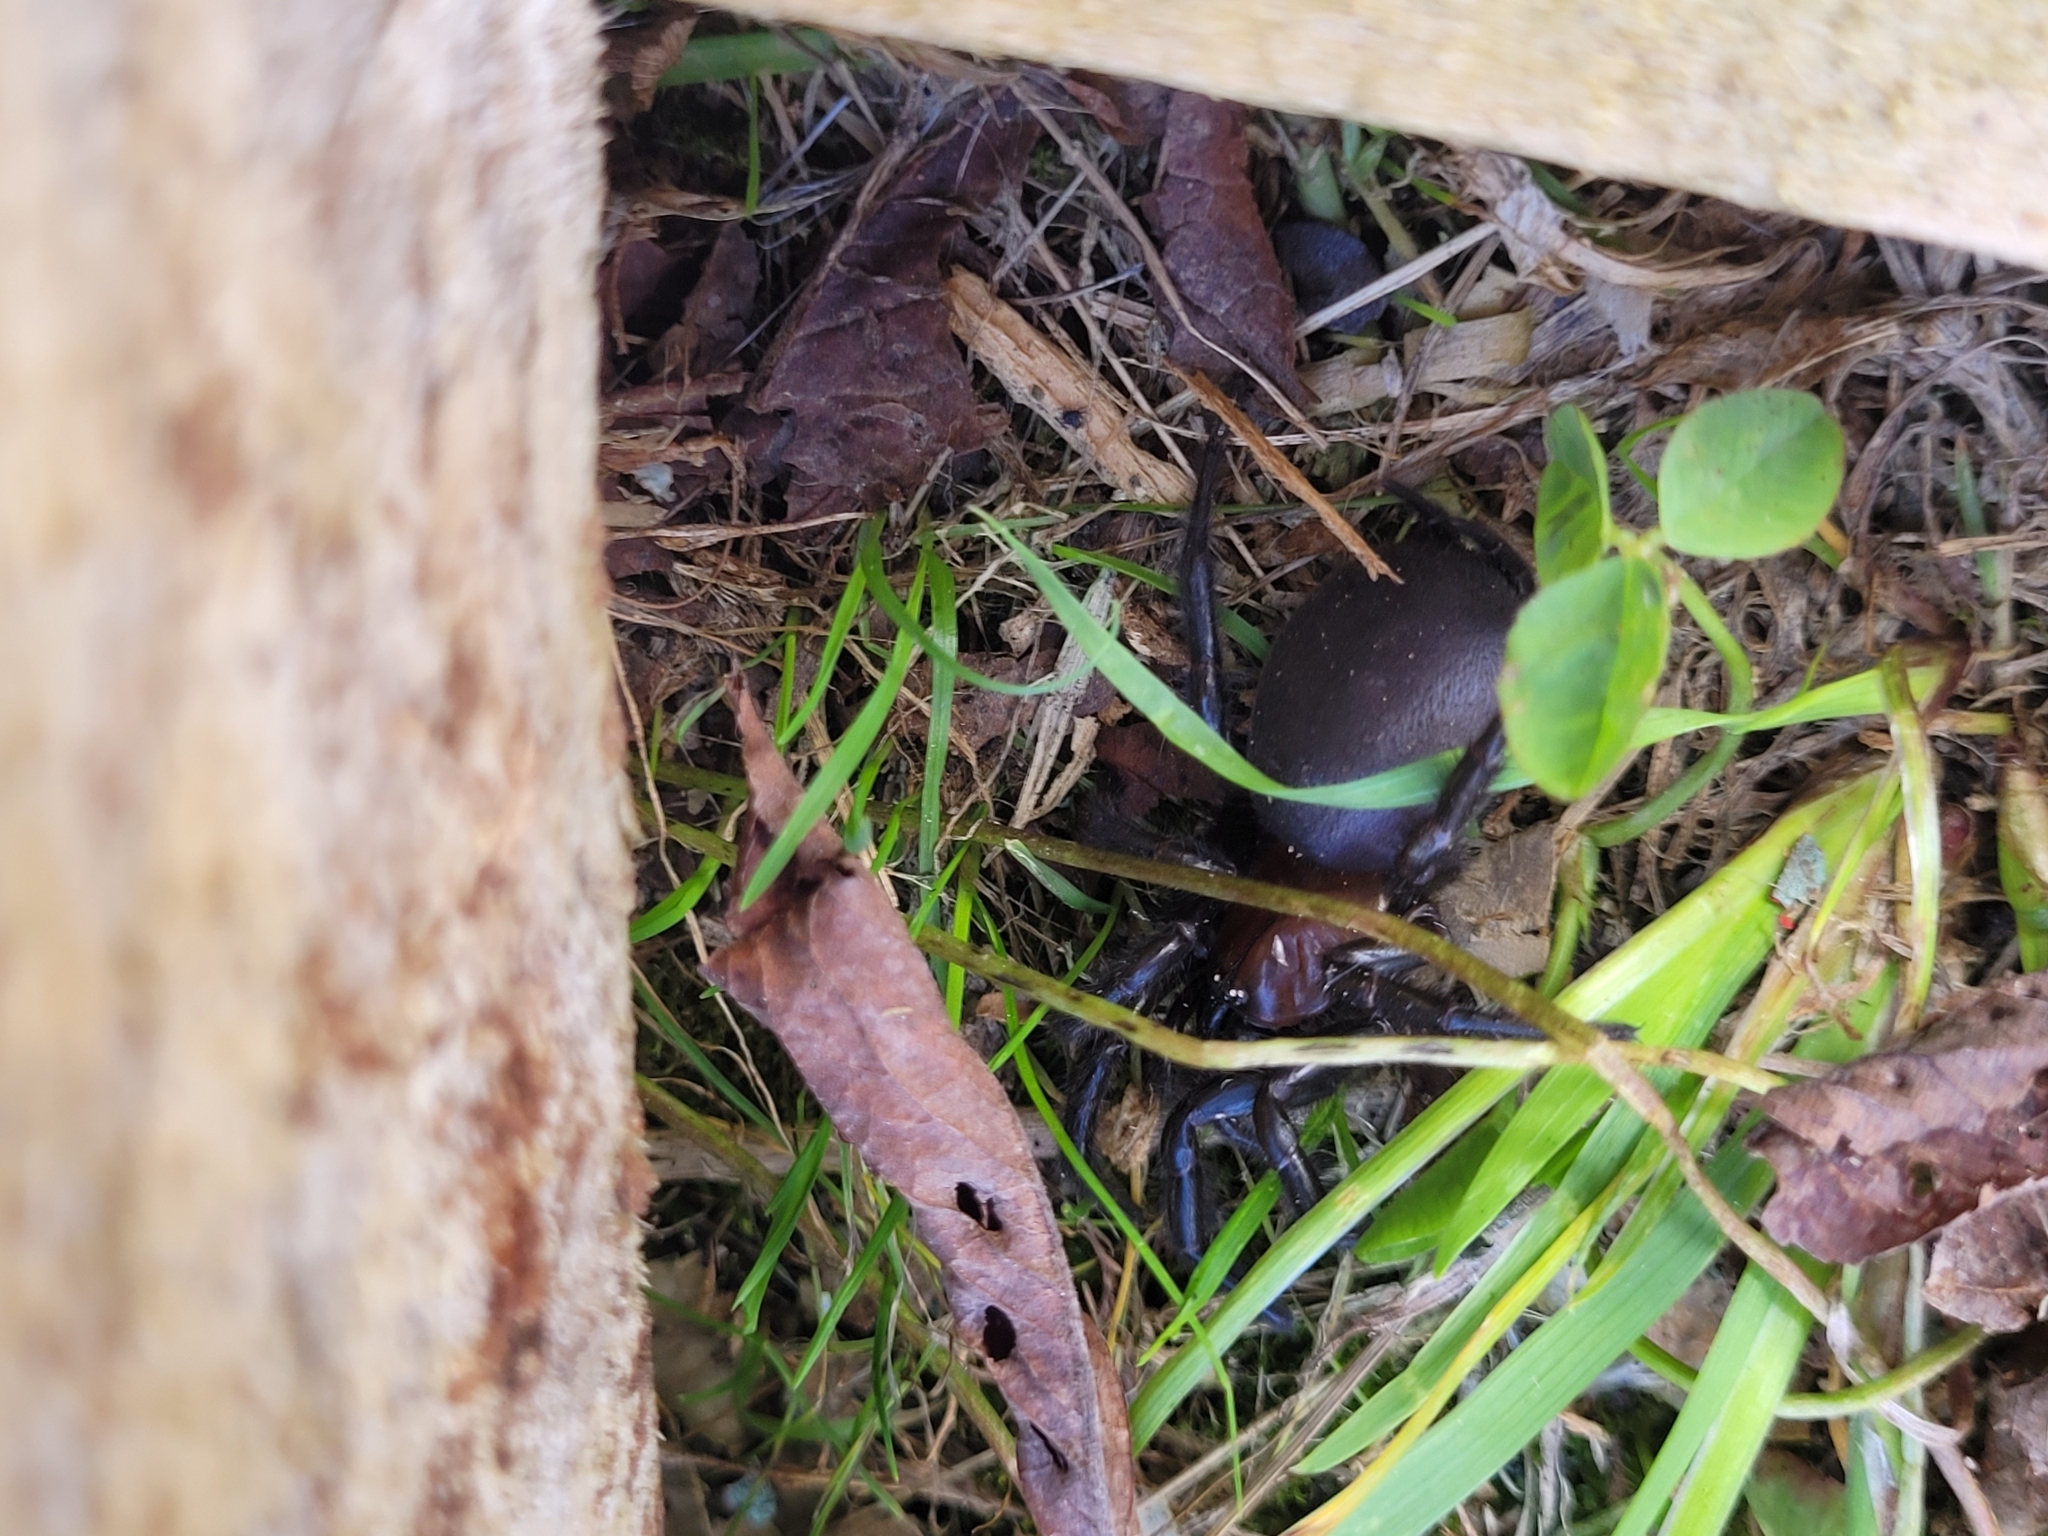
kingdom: Animalia
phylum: Arthropoda
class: Arachnida
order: Araneae
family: Porrhothelidae
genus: Porrhothele
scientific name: Porrhothele antipodiana
